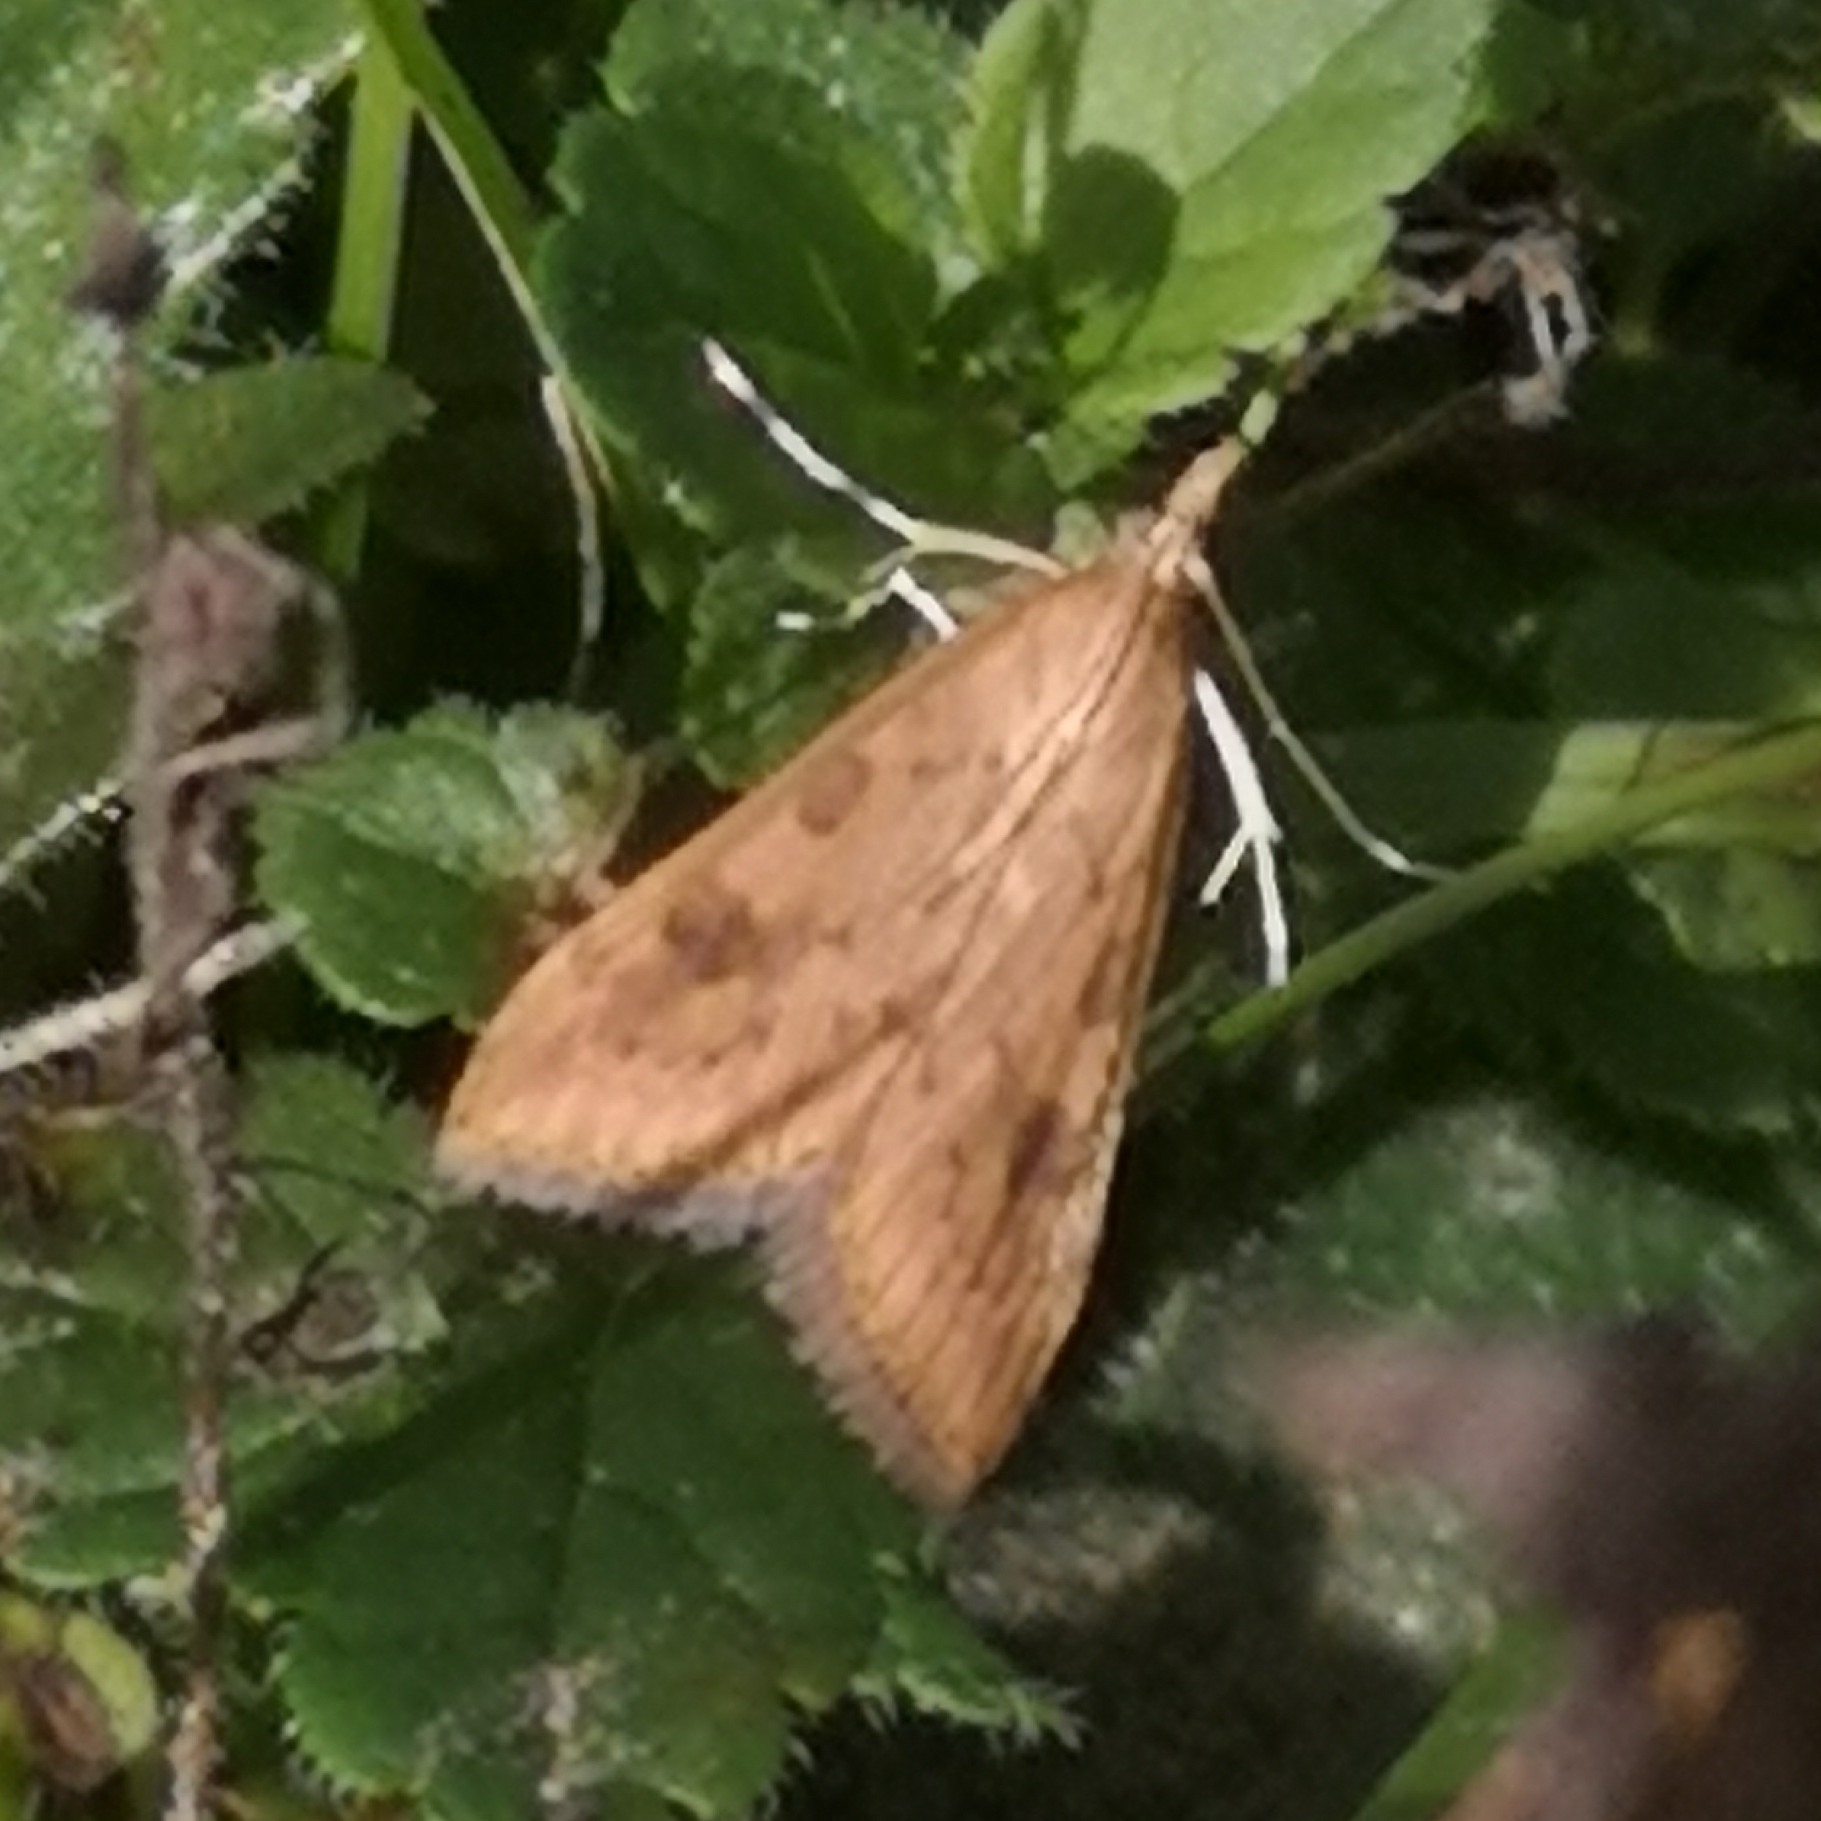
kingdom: Animalia
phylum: Arthropoda
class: Insecta
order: Lepidoptera
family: Crambidae
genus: Udea
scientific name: Udea ferrugalis
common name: Rusty dot
